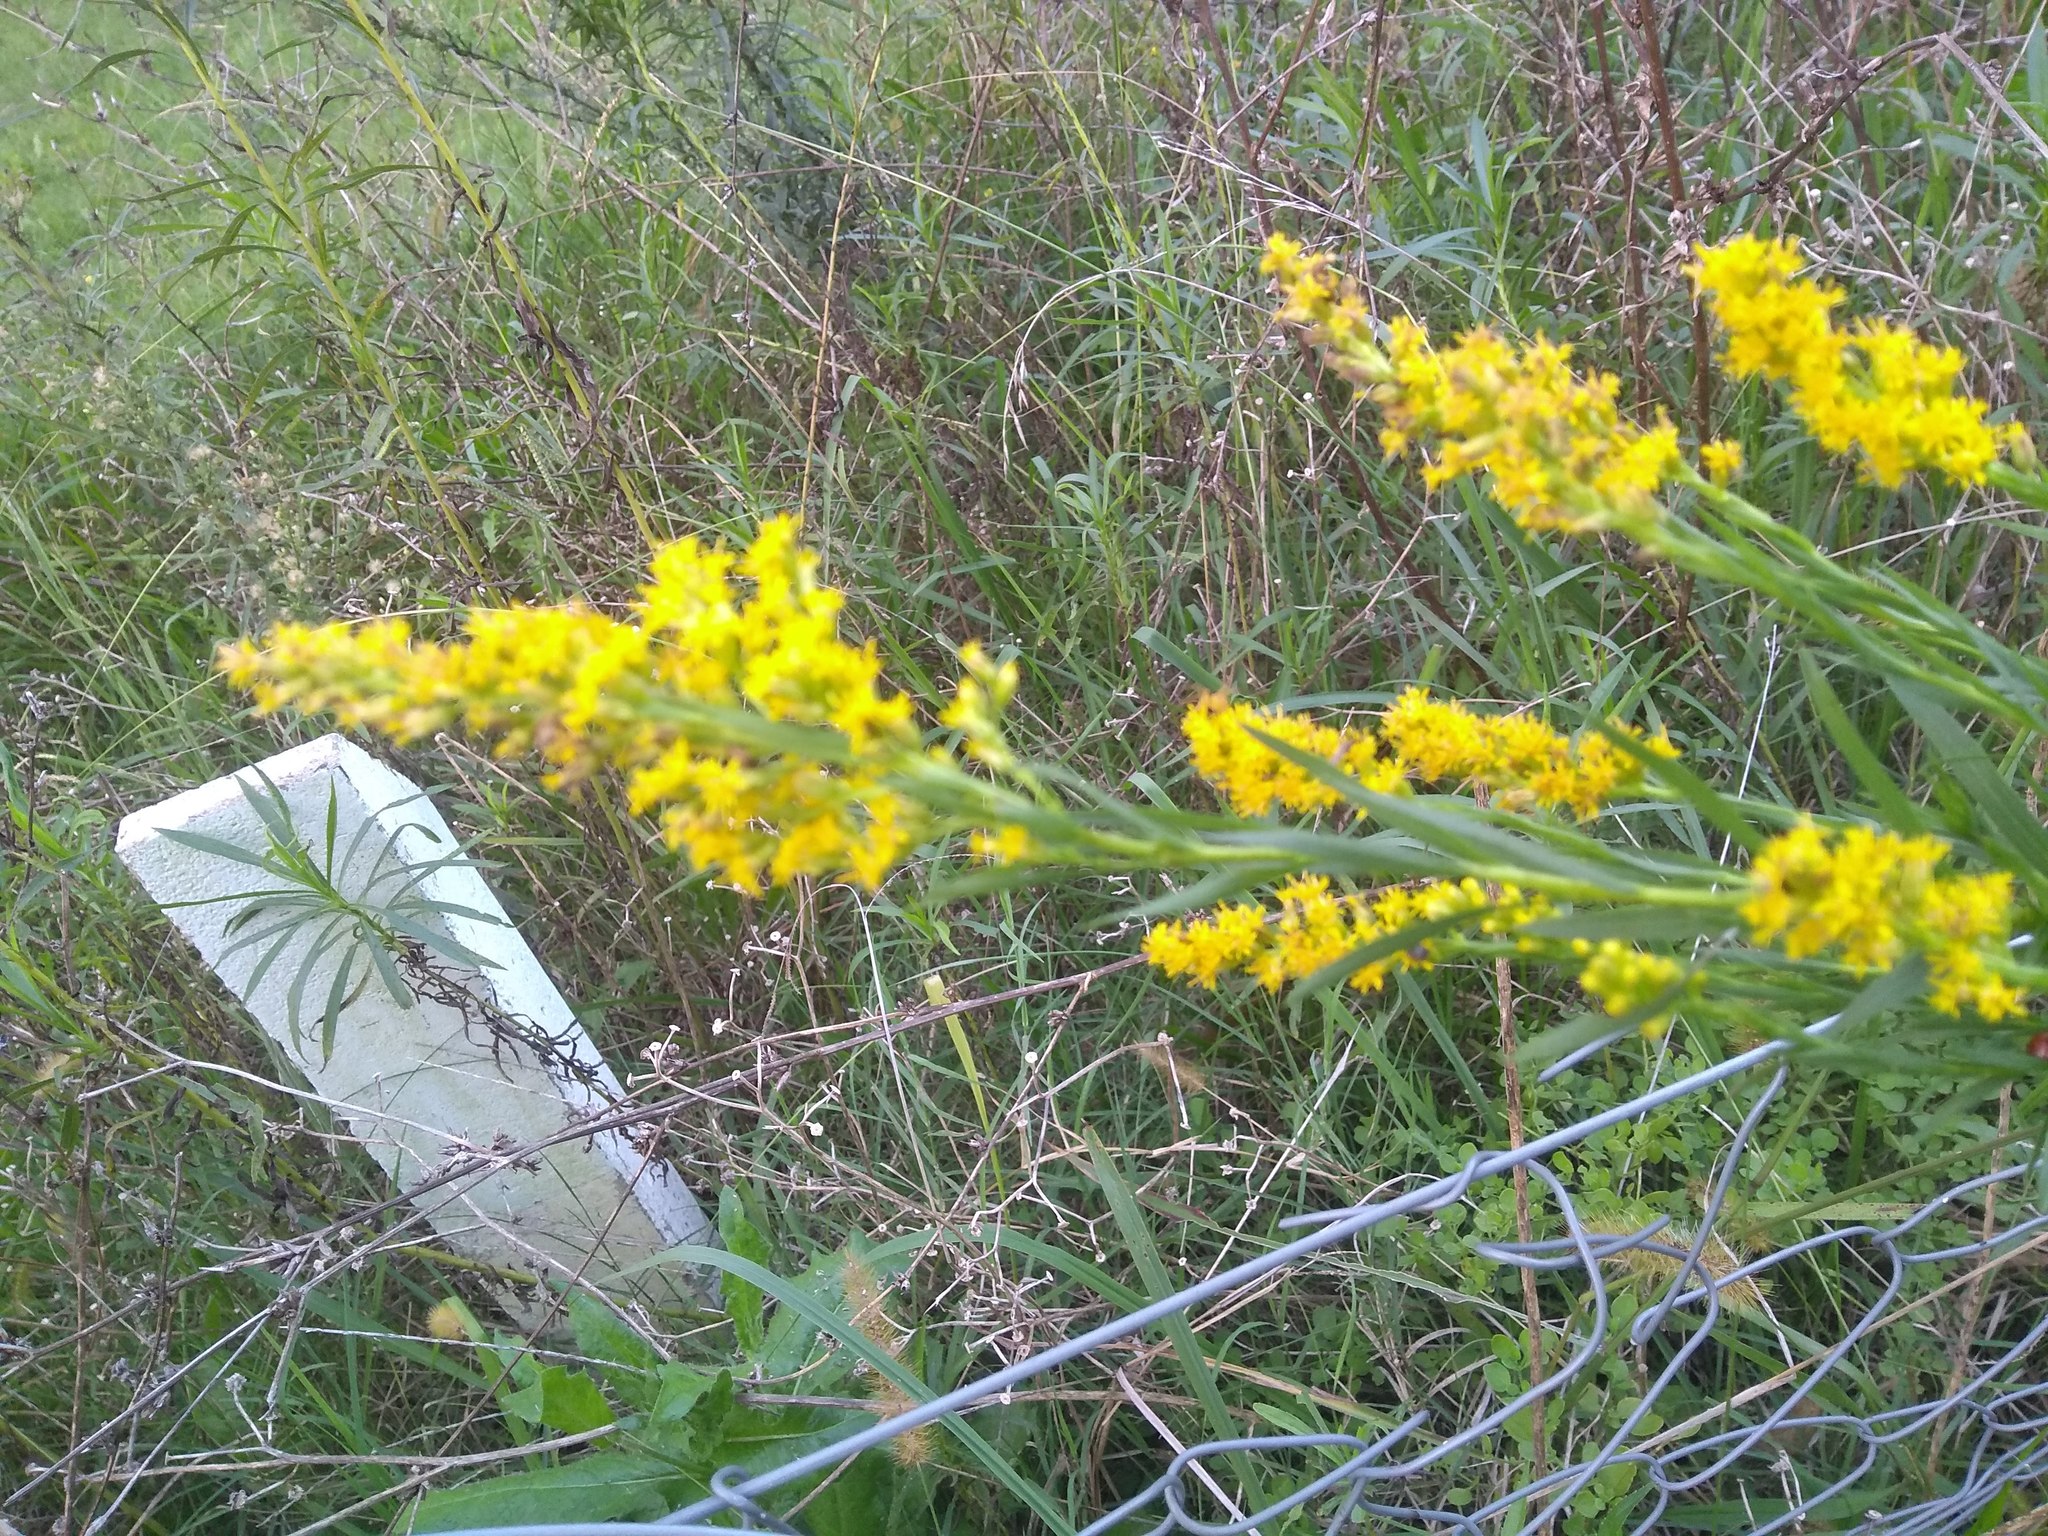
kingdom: Plantae
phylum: Tracheophyta
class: Magnoliopsida
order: Asterales
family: Asteraceae
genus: Solidago
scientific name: Solidago chilensis
